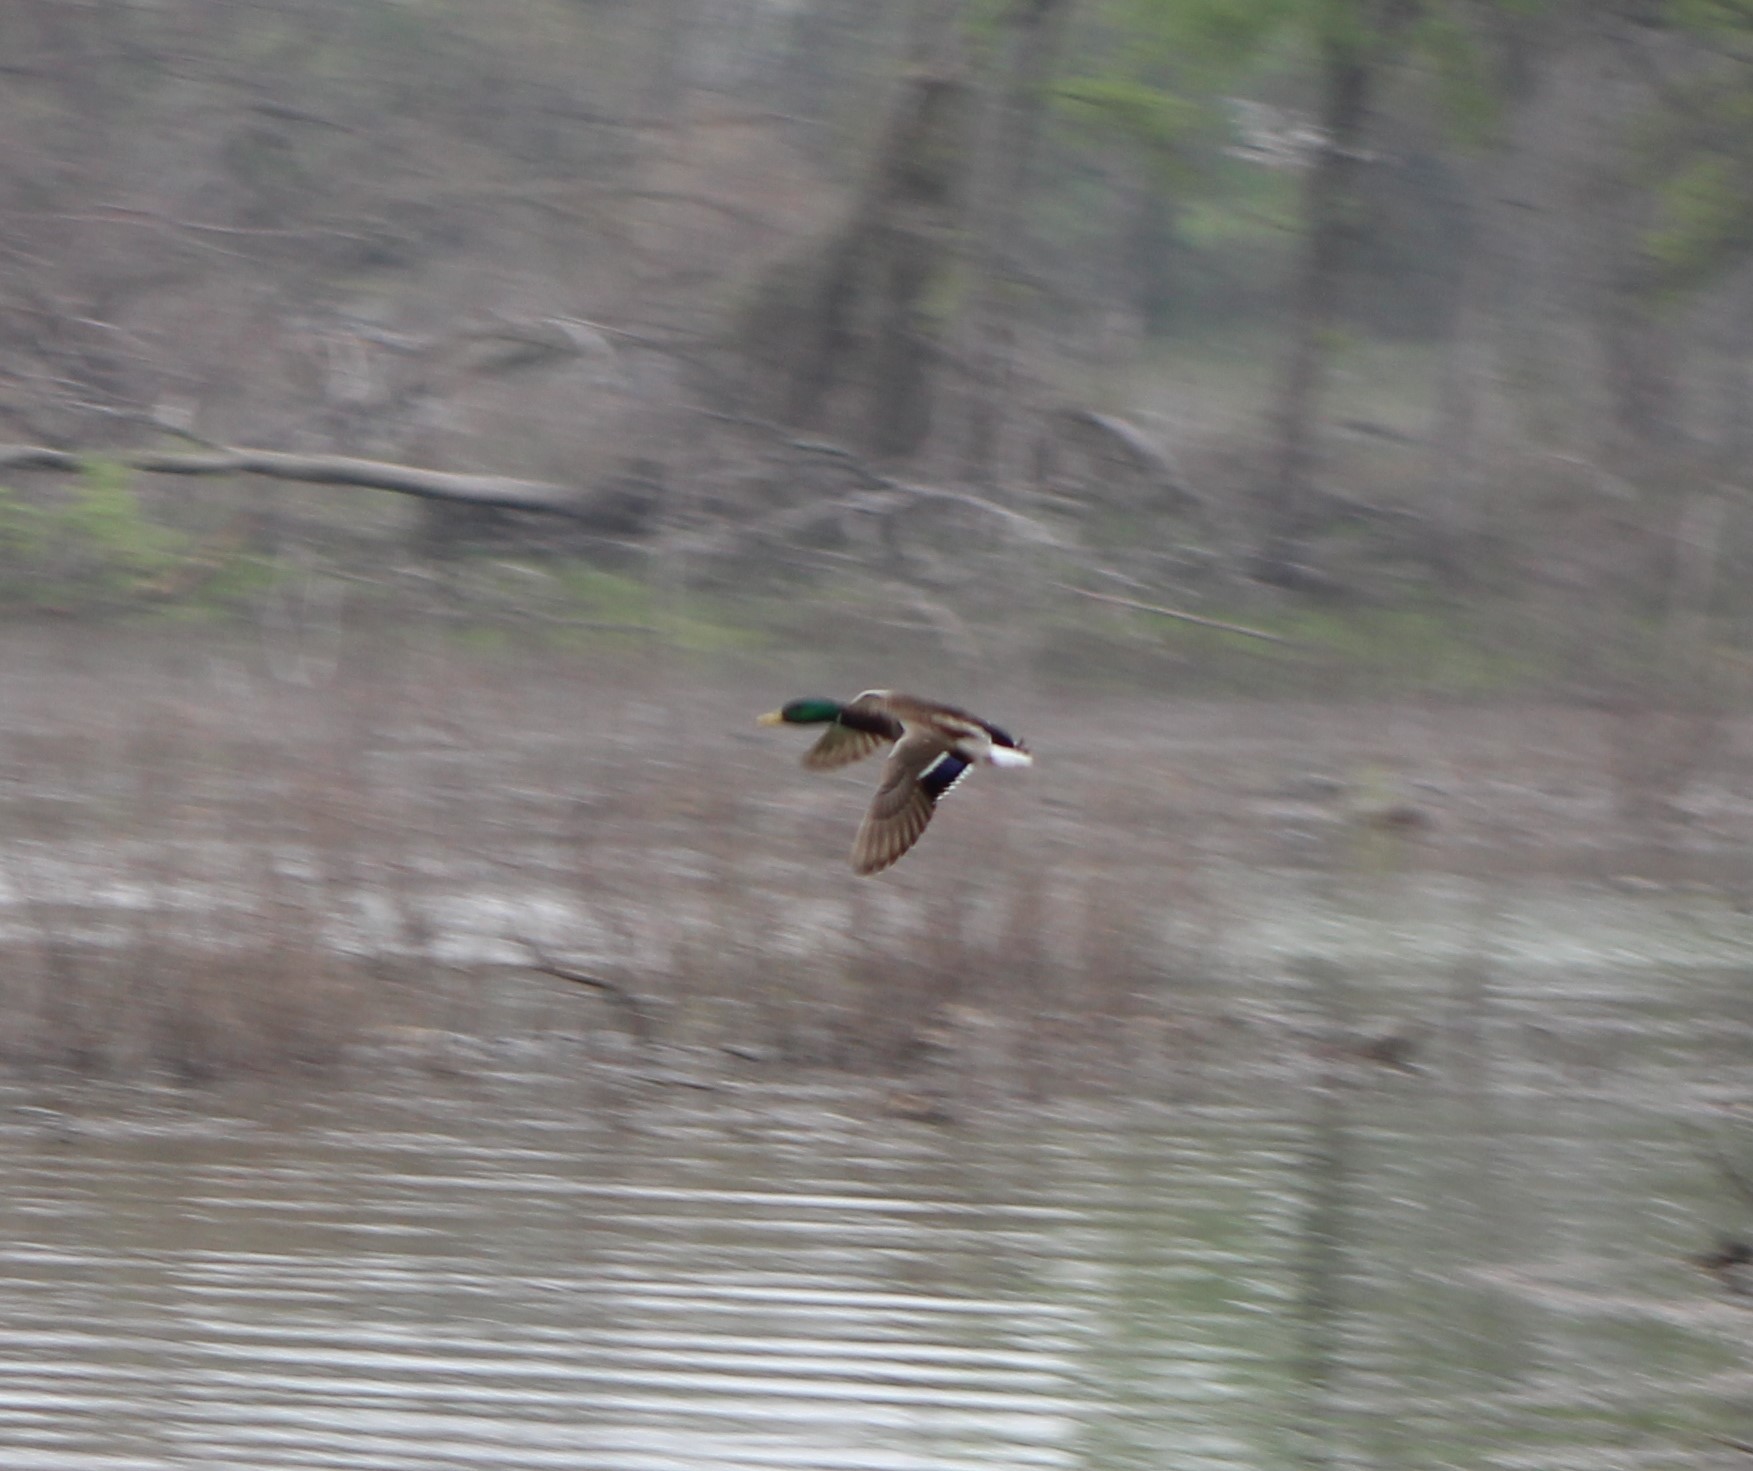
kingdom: Animalia
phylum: Chordata
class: Aves
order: Anseriformes
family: Anatidae
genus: Anas
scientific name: Anas platyrhynchos
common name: Mallard
